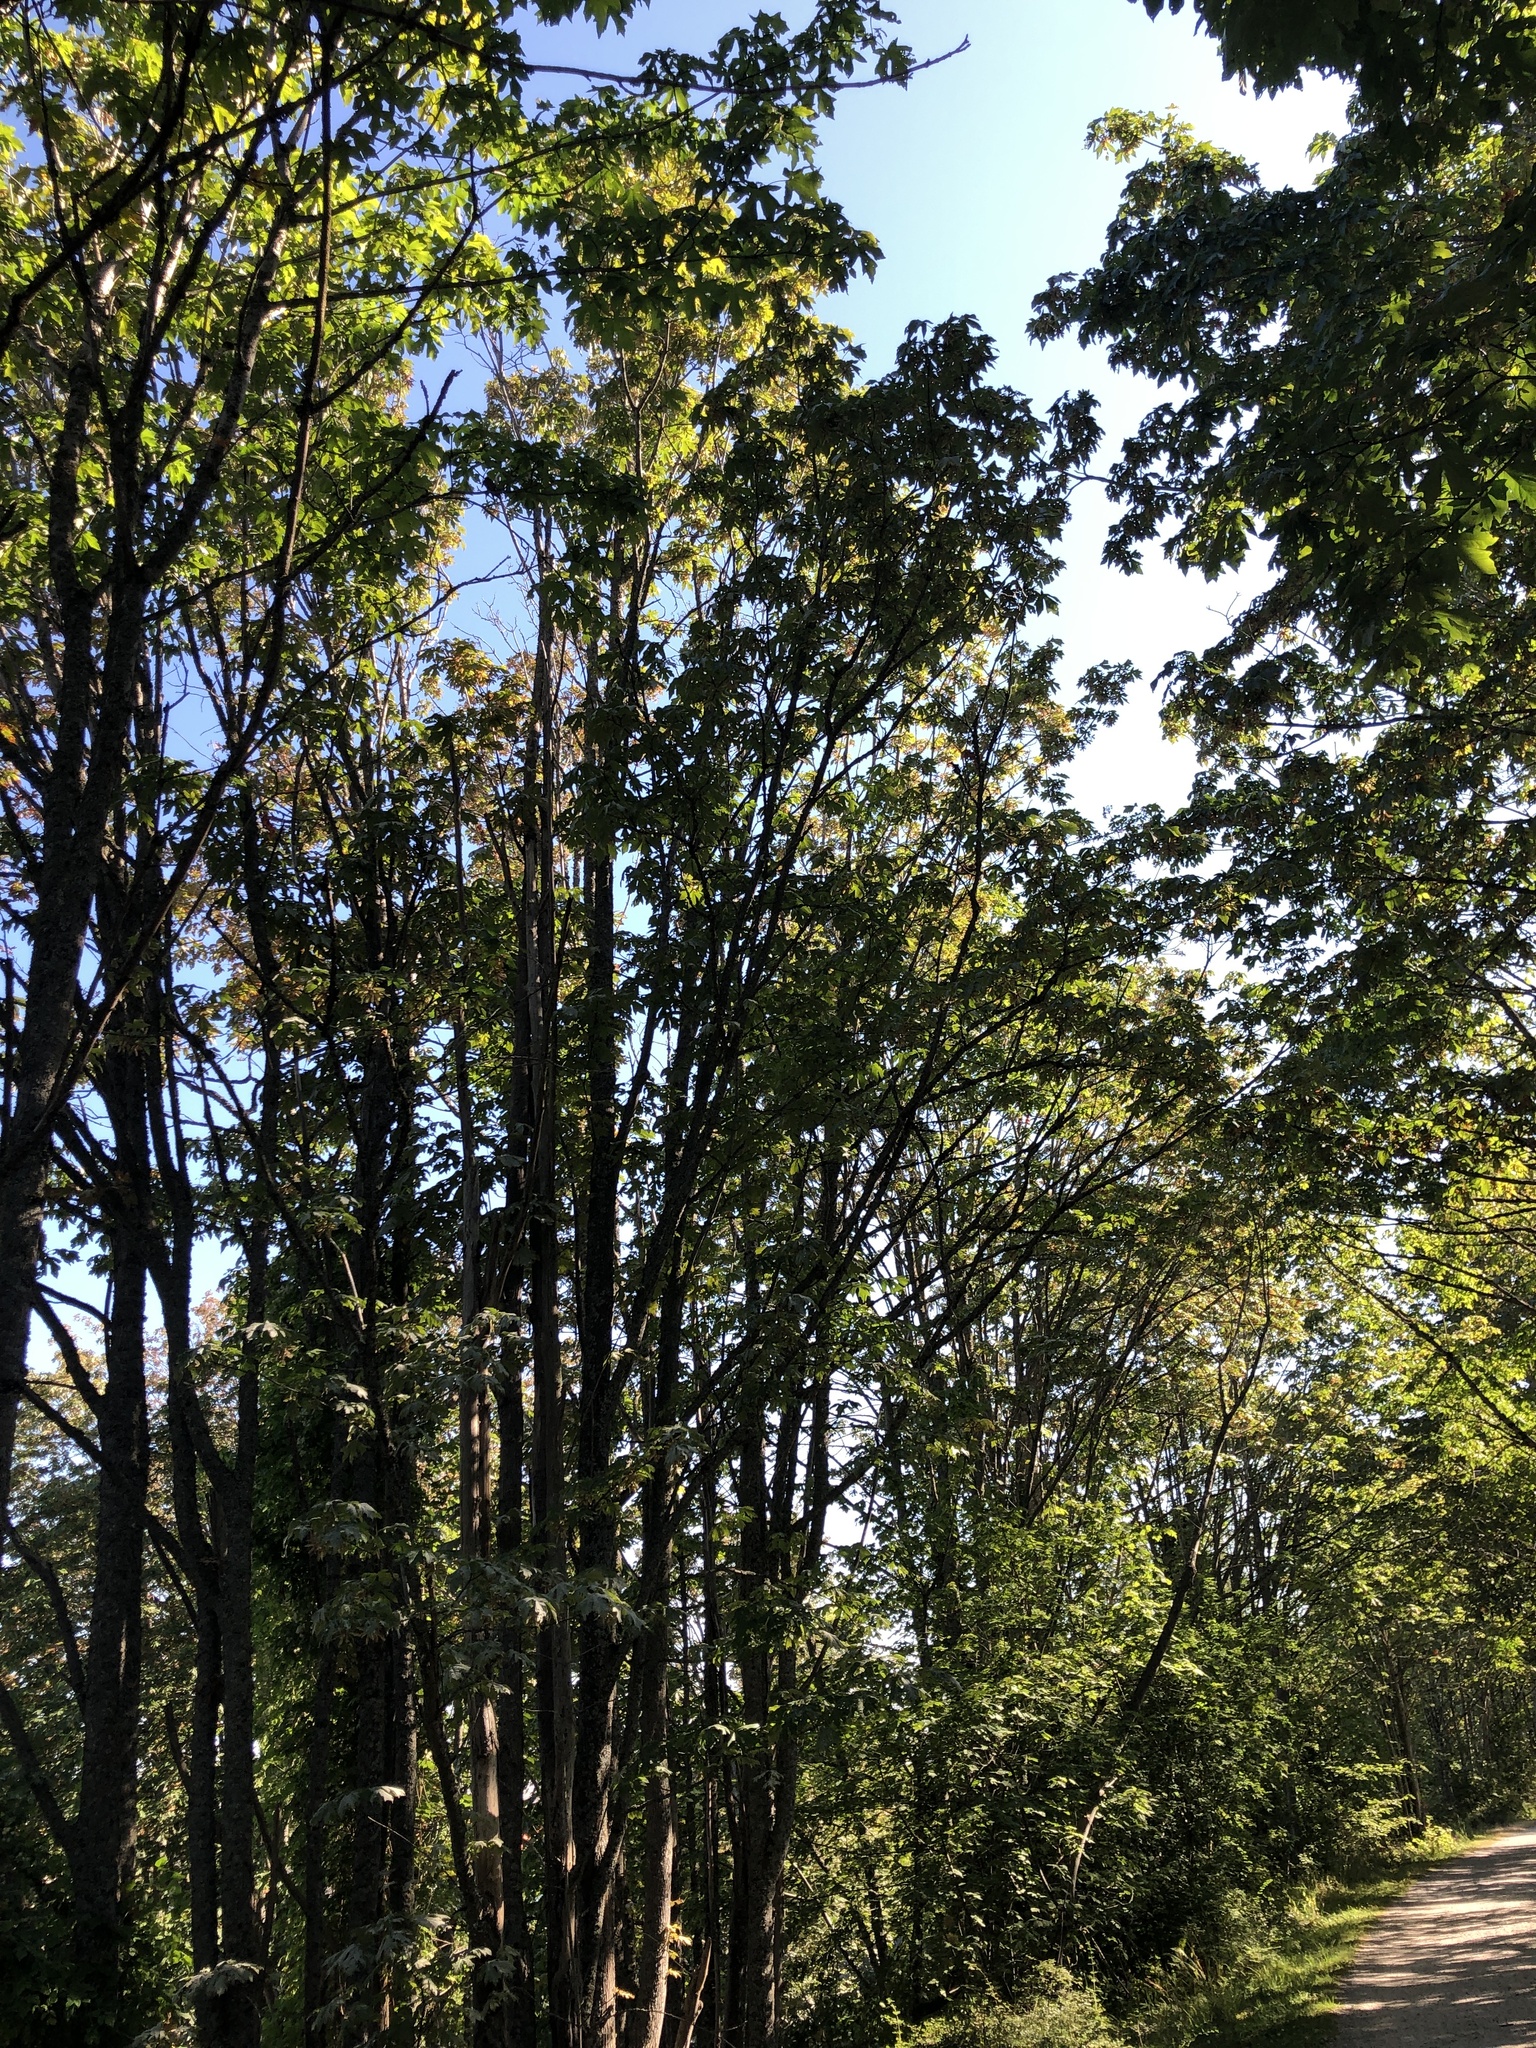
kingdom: Plantae
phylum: Tracheophyta
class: Magnoliopsida
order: Sapindales
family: Sapindaceae
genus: Acer
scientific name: Acer macrophyllum
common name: Oregon maple
